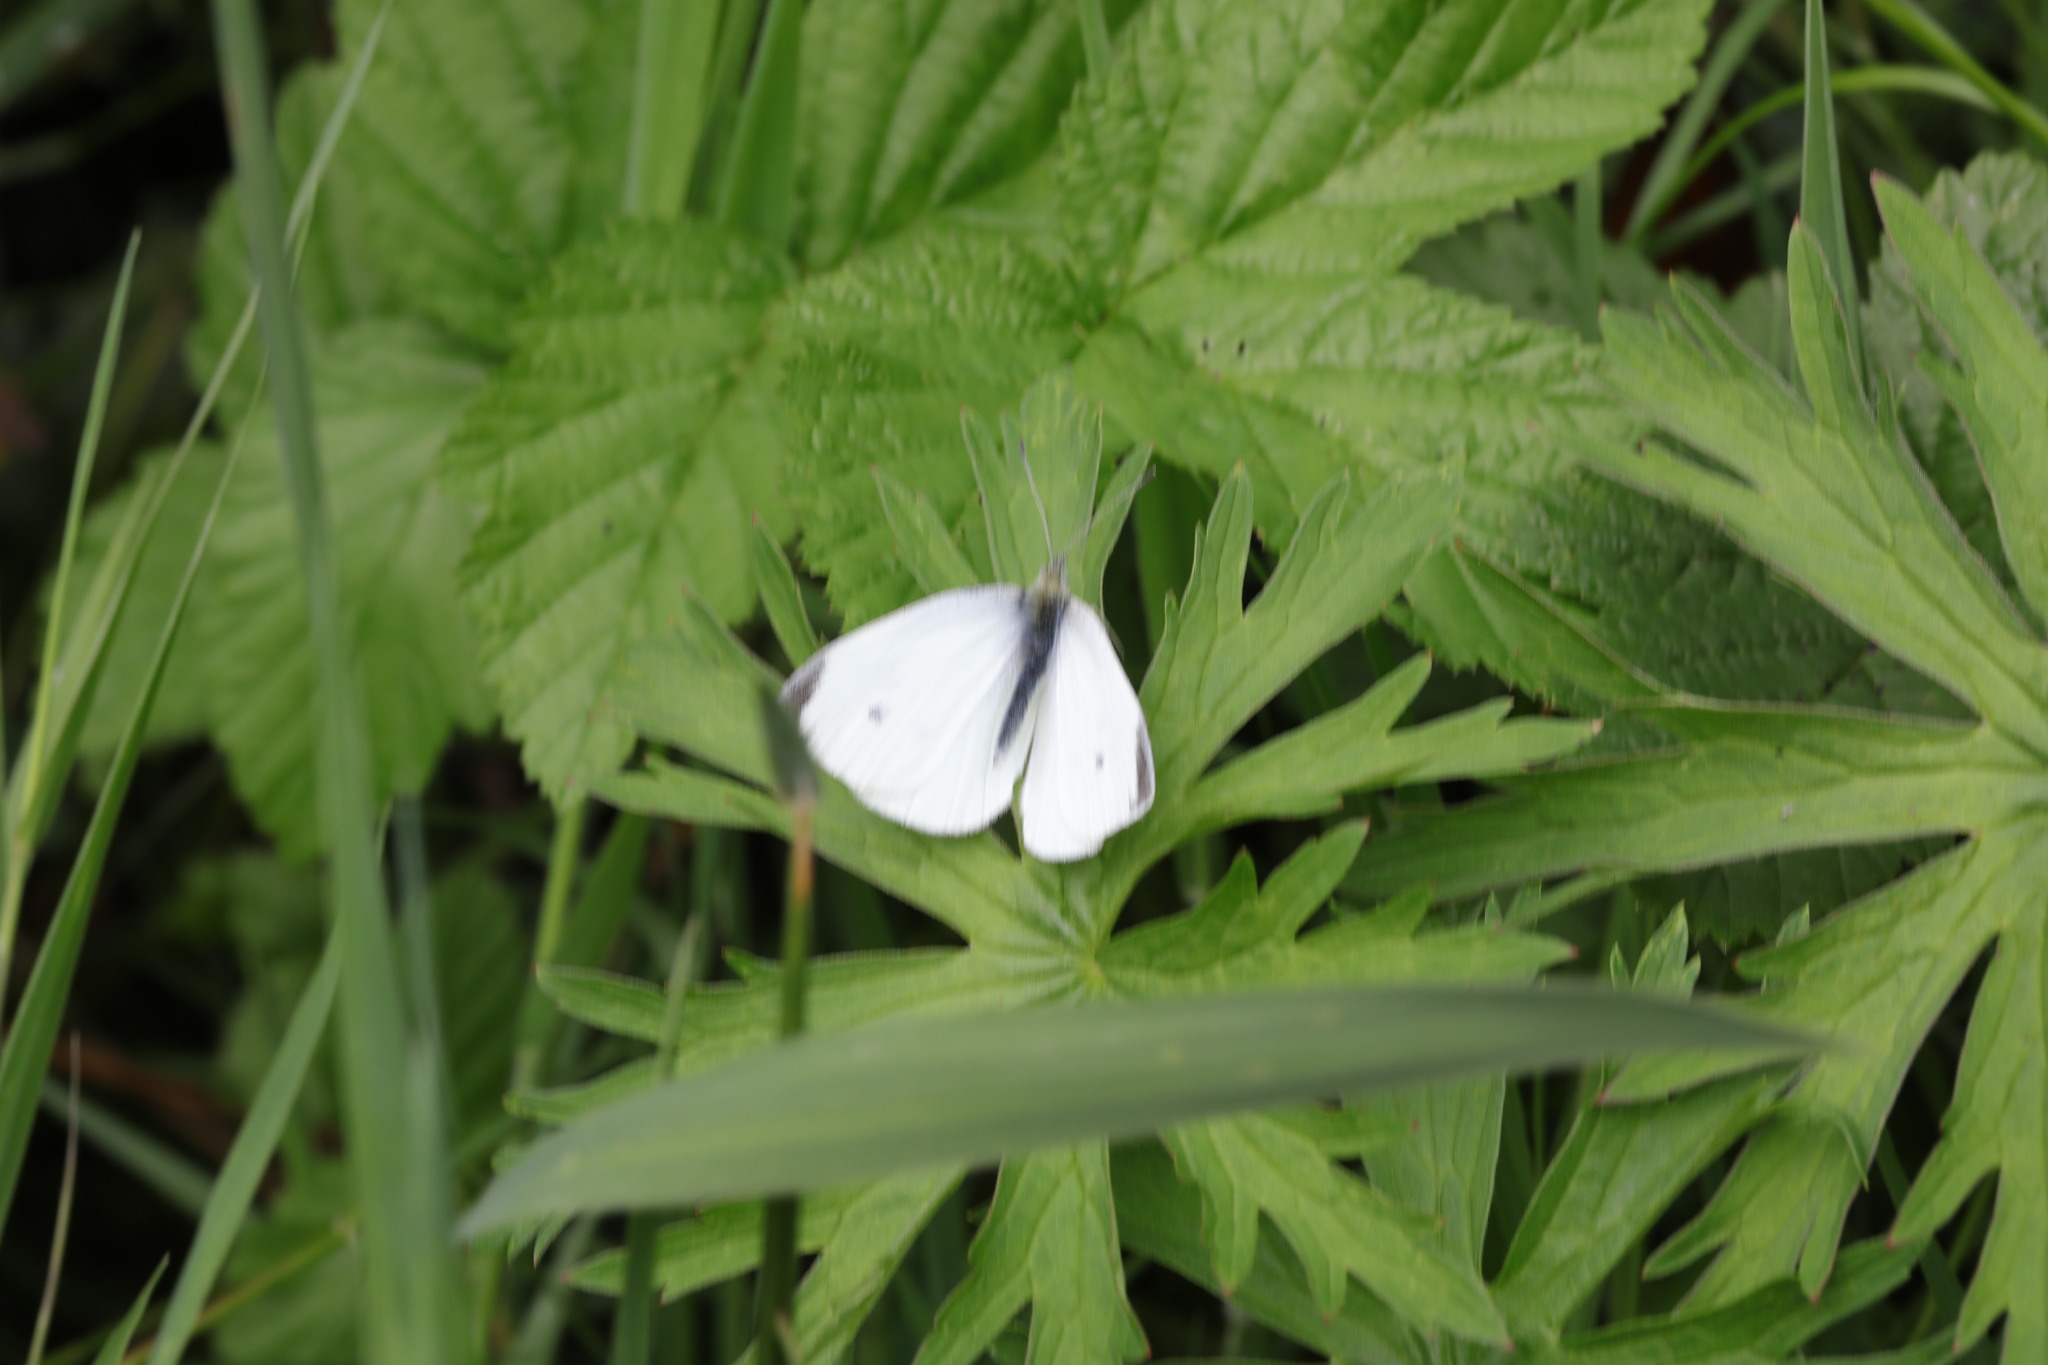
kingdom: Animalia
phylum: Arthropoda
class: Insecta
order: Lepidoptera
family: Pieridae
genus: Pieris
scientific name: Pieris rapae
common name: Small white
